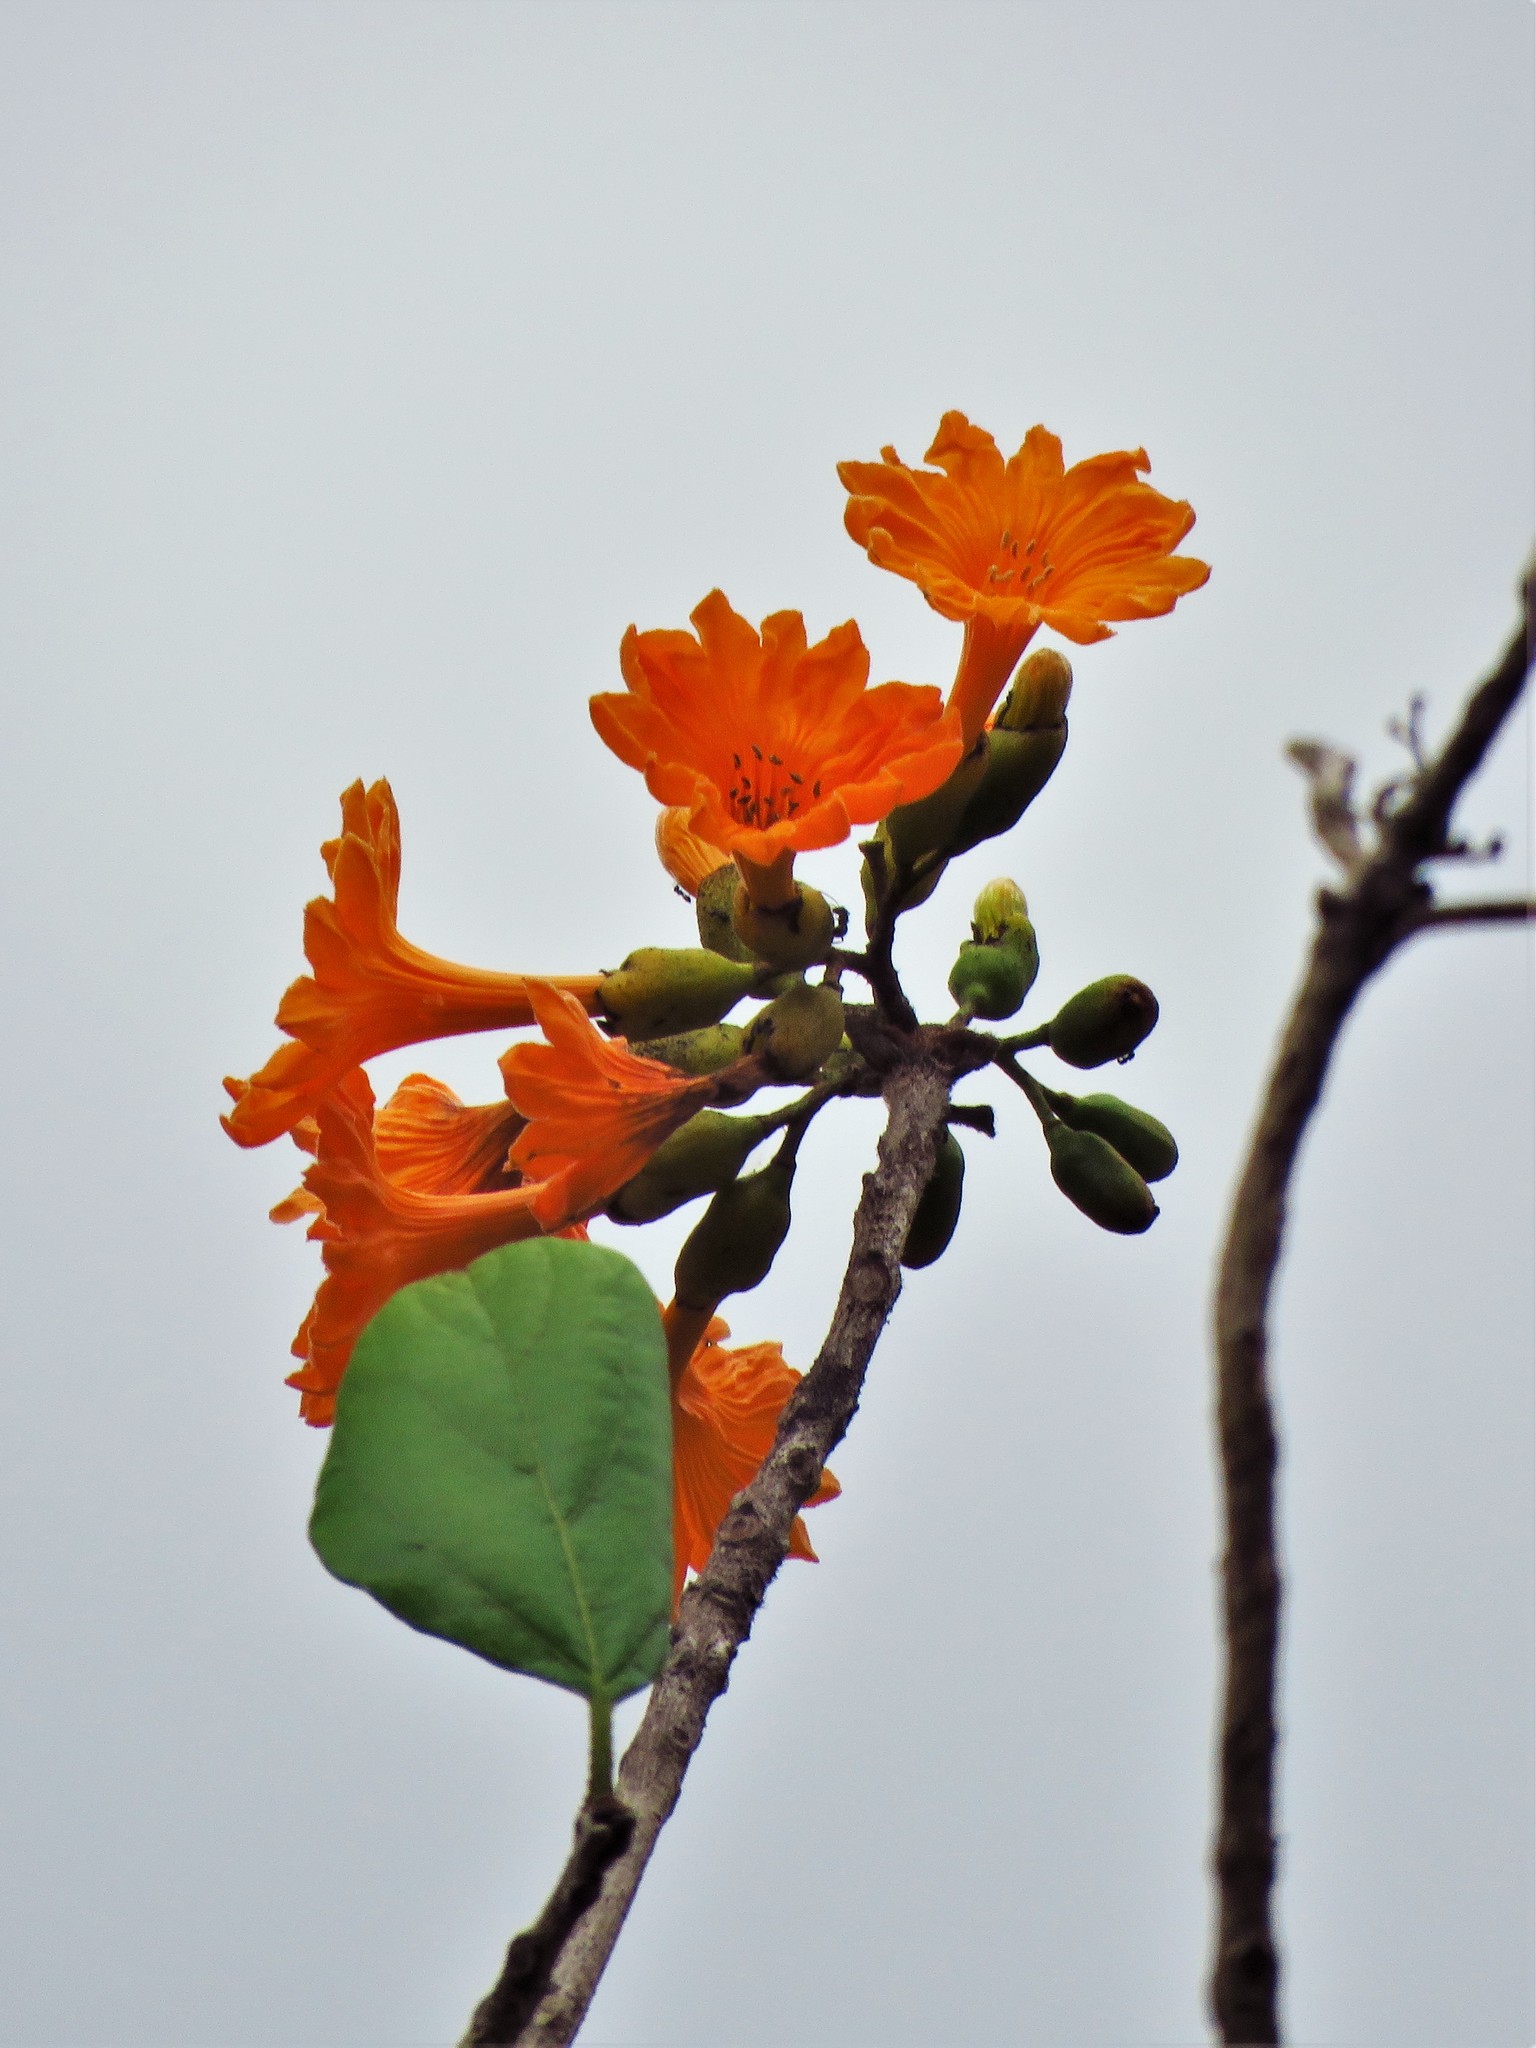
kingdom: Plantae
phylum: Tracheophyta
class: Magnoliopsida
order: Boraginales
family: Cordiaceae
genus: Cordia
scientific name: Cordia dodecandra
